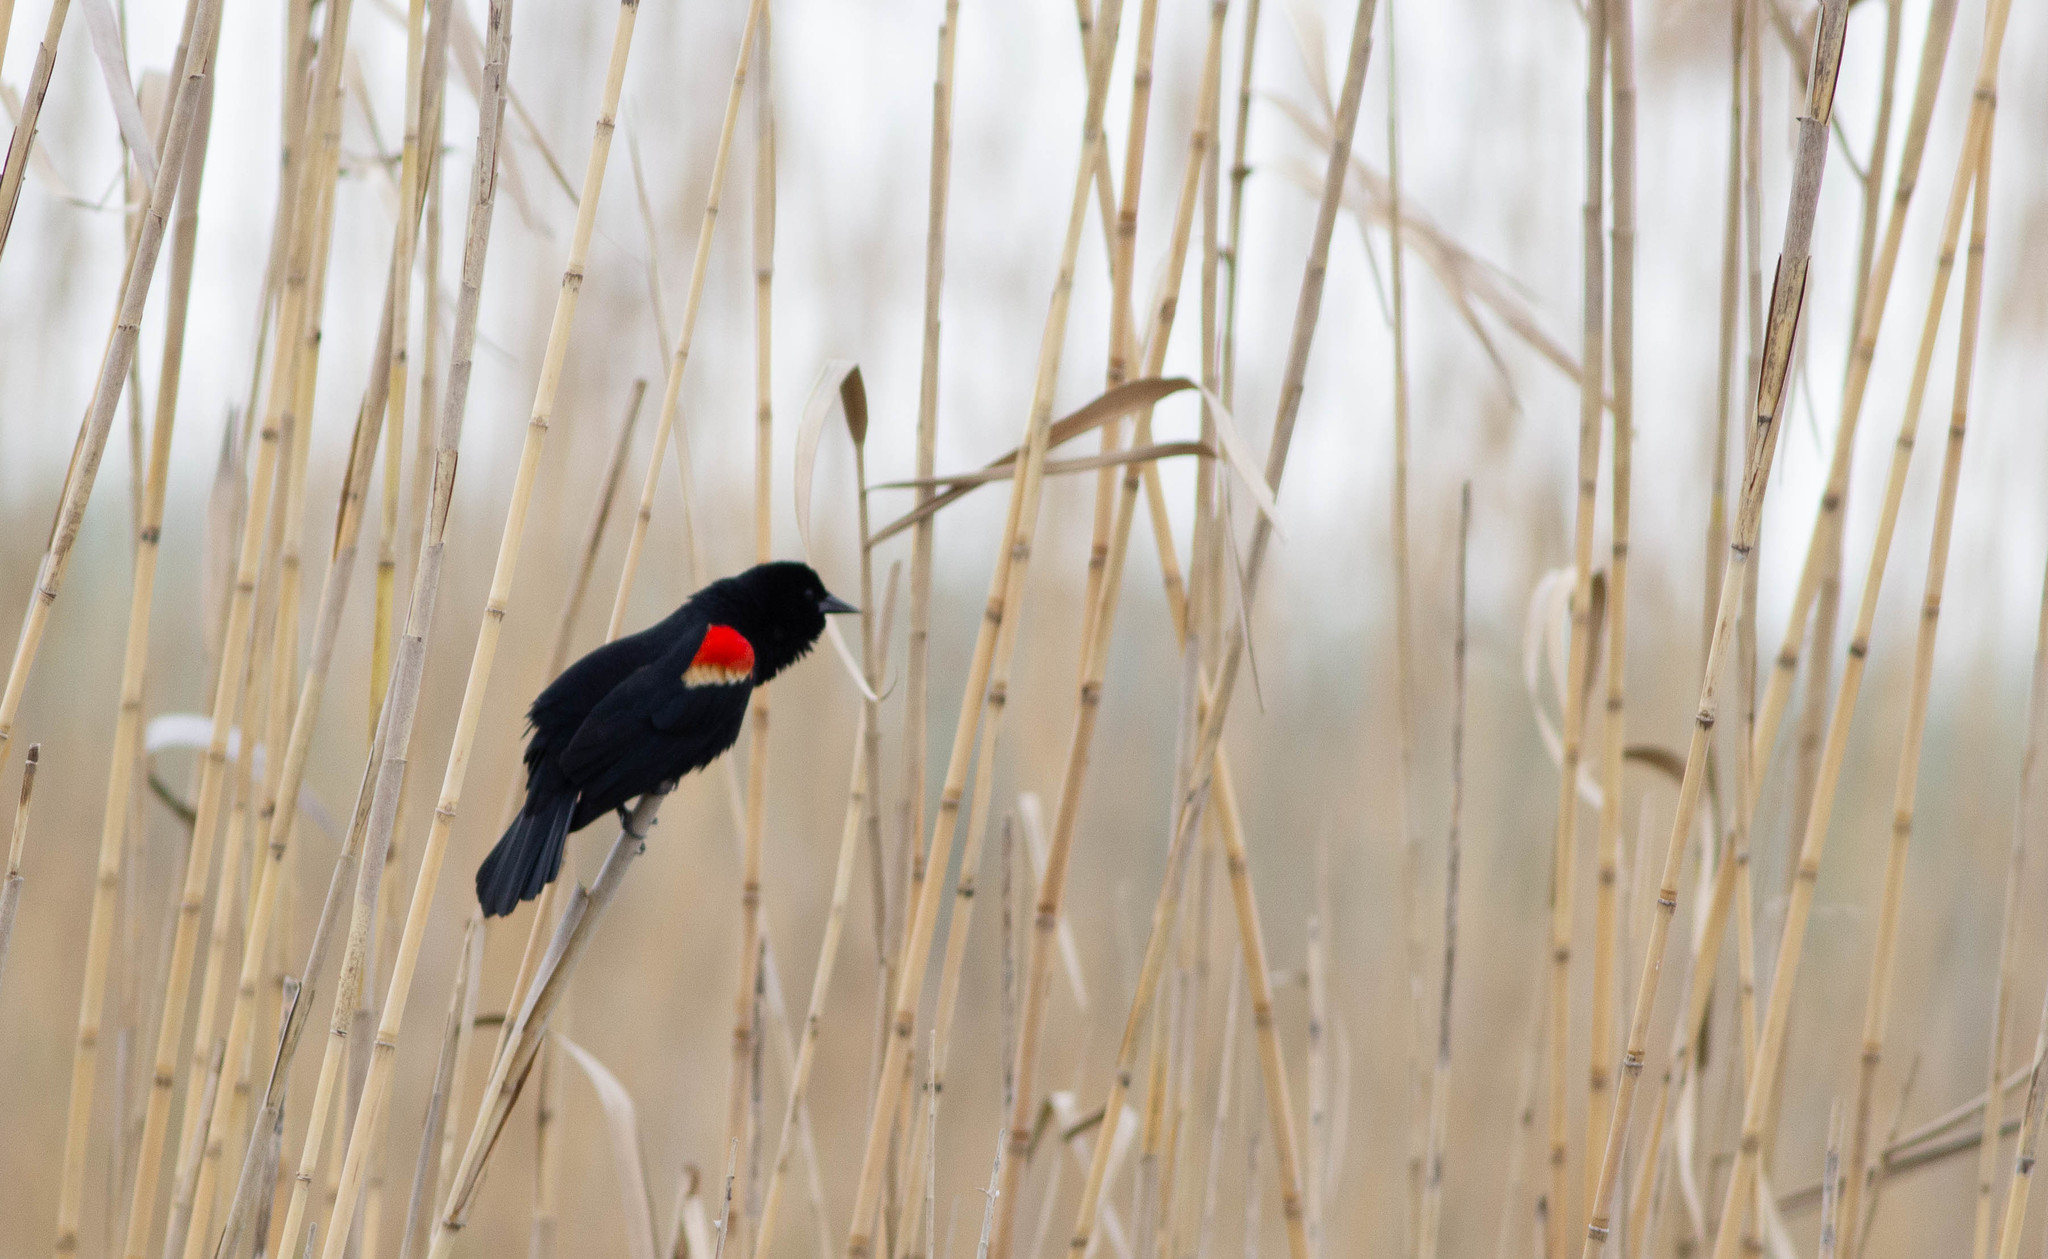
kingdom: Animalia
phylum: Chordata
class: Aves
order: Passeriformes
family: Icteridae
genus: Agelaius
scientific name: Agelaius phoeniceus
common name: Red-winged blackbird
